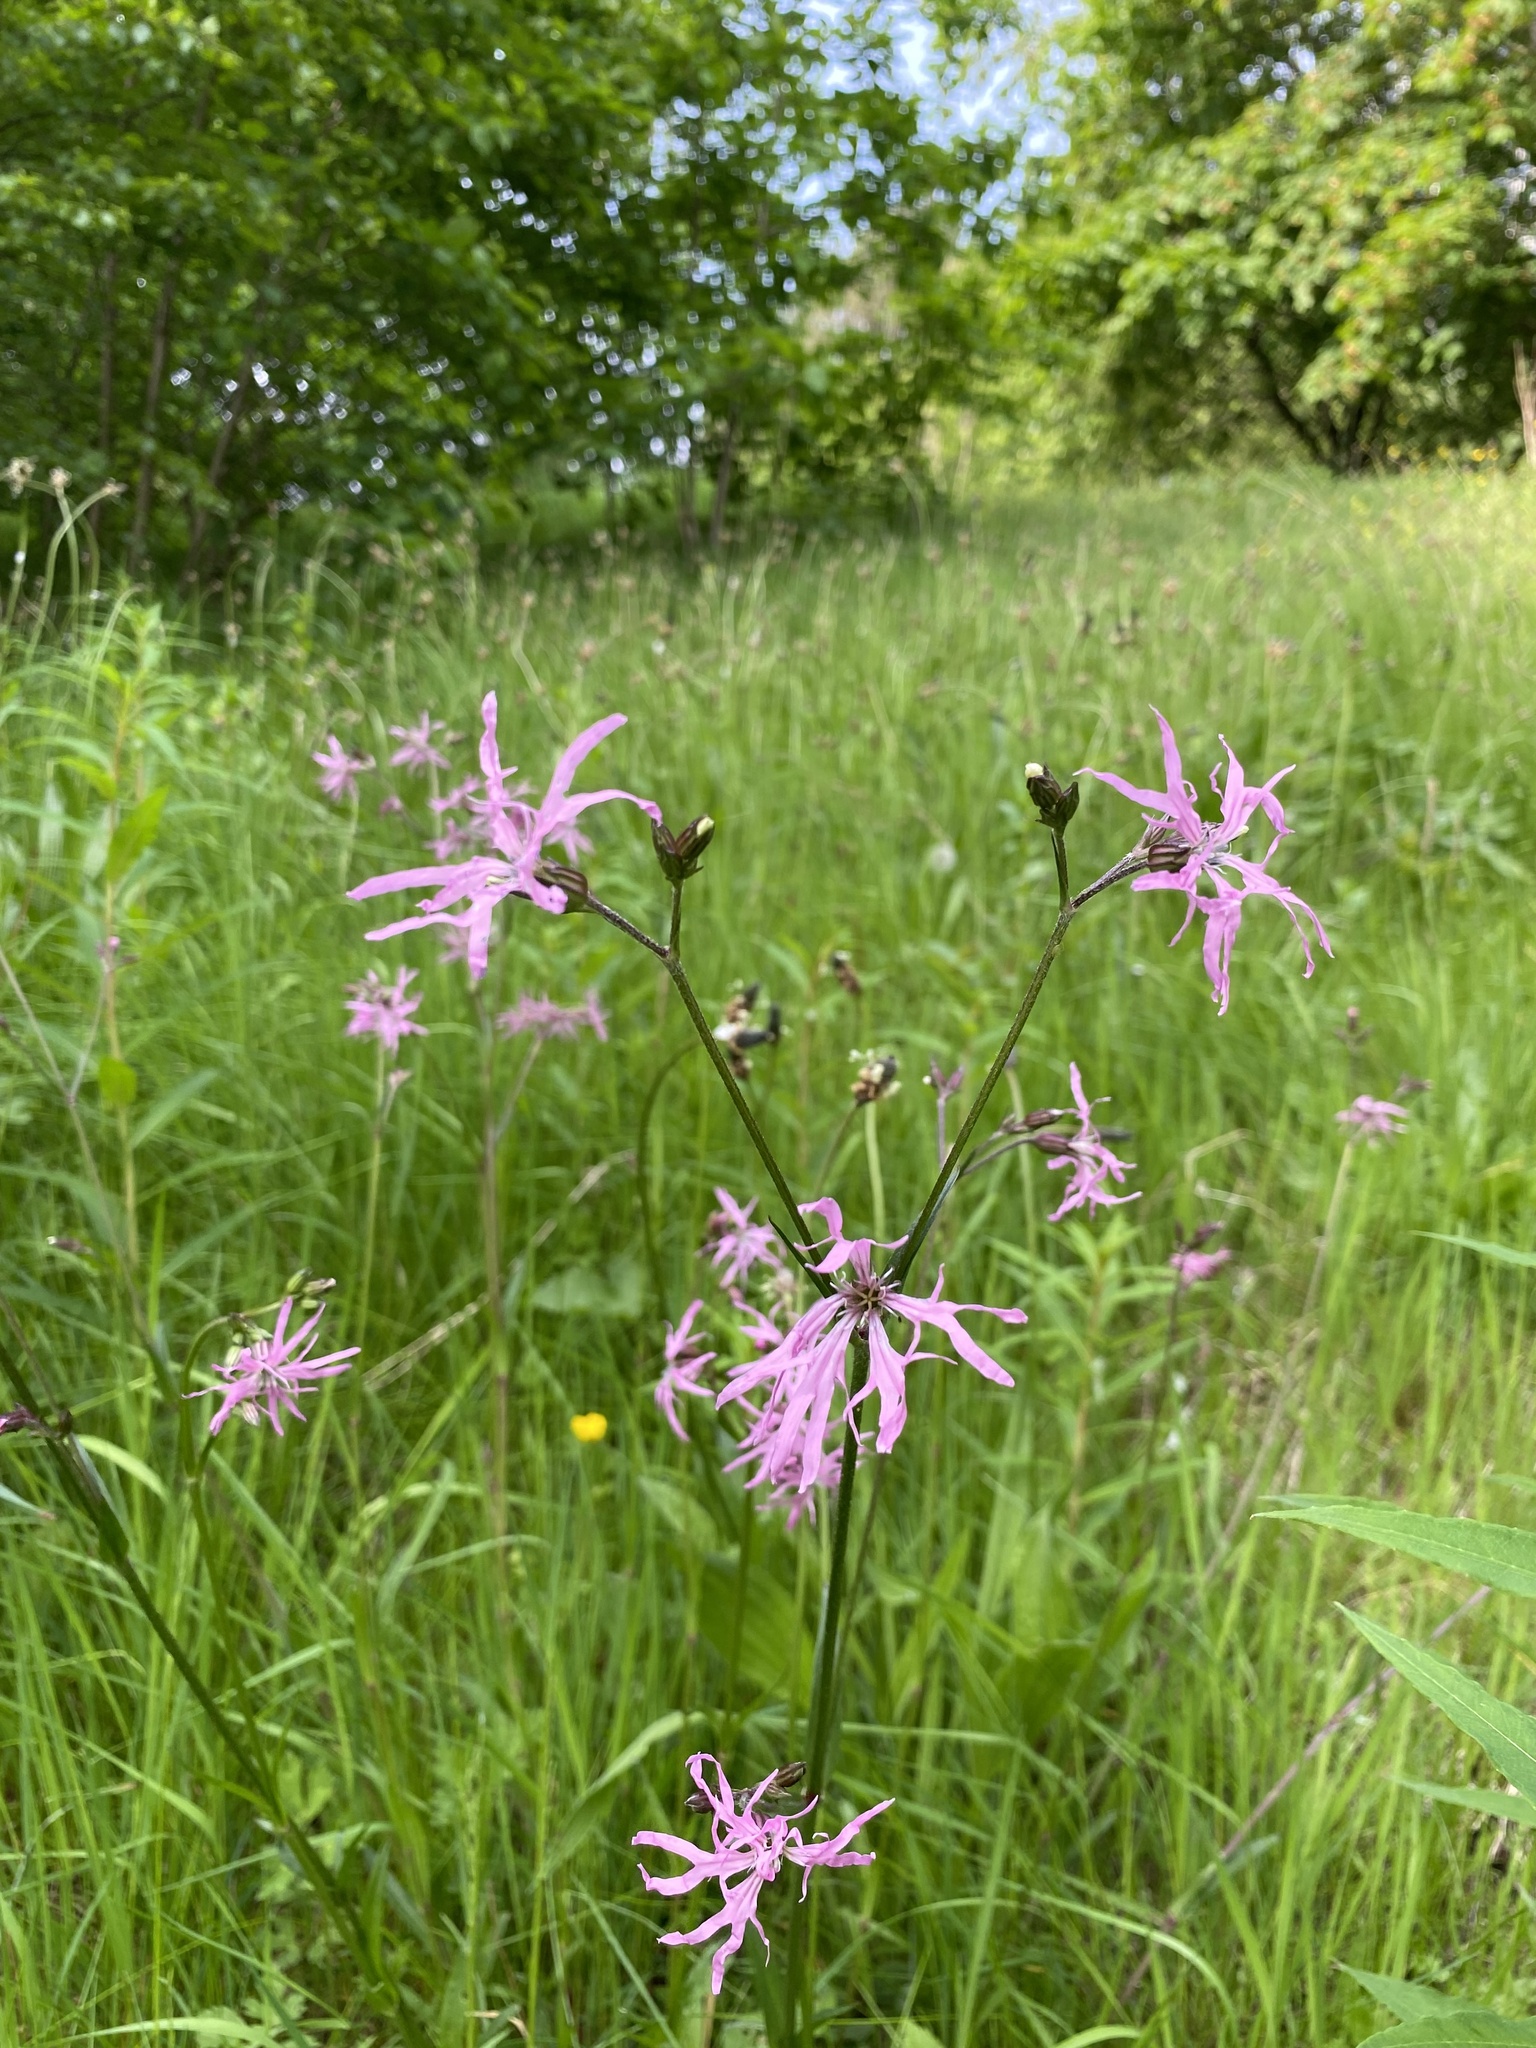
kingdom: Plantae
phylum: Tracheophyta
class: Magnoliopsida
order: Caryophyllales
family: Caryophyllaceae
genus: Silene
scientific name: Silene flos-cuculi
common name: Ragged-robin
